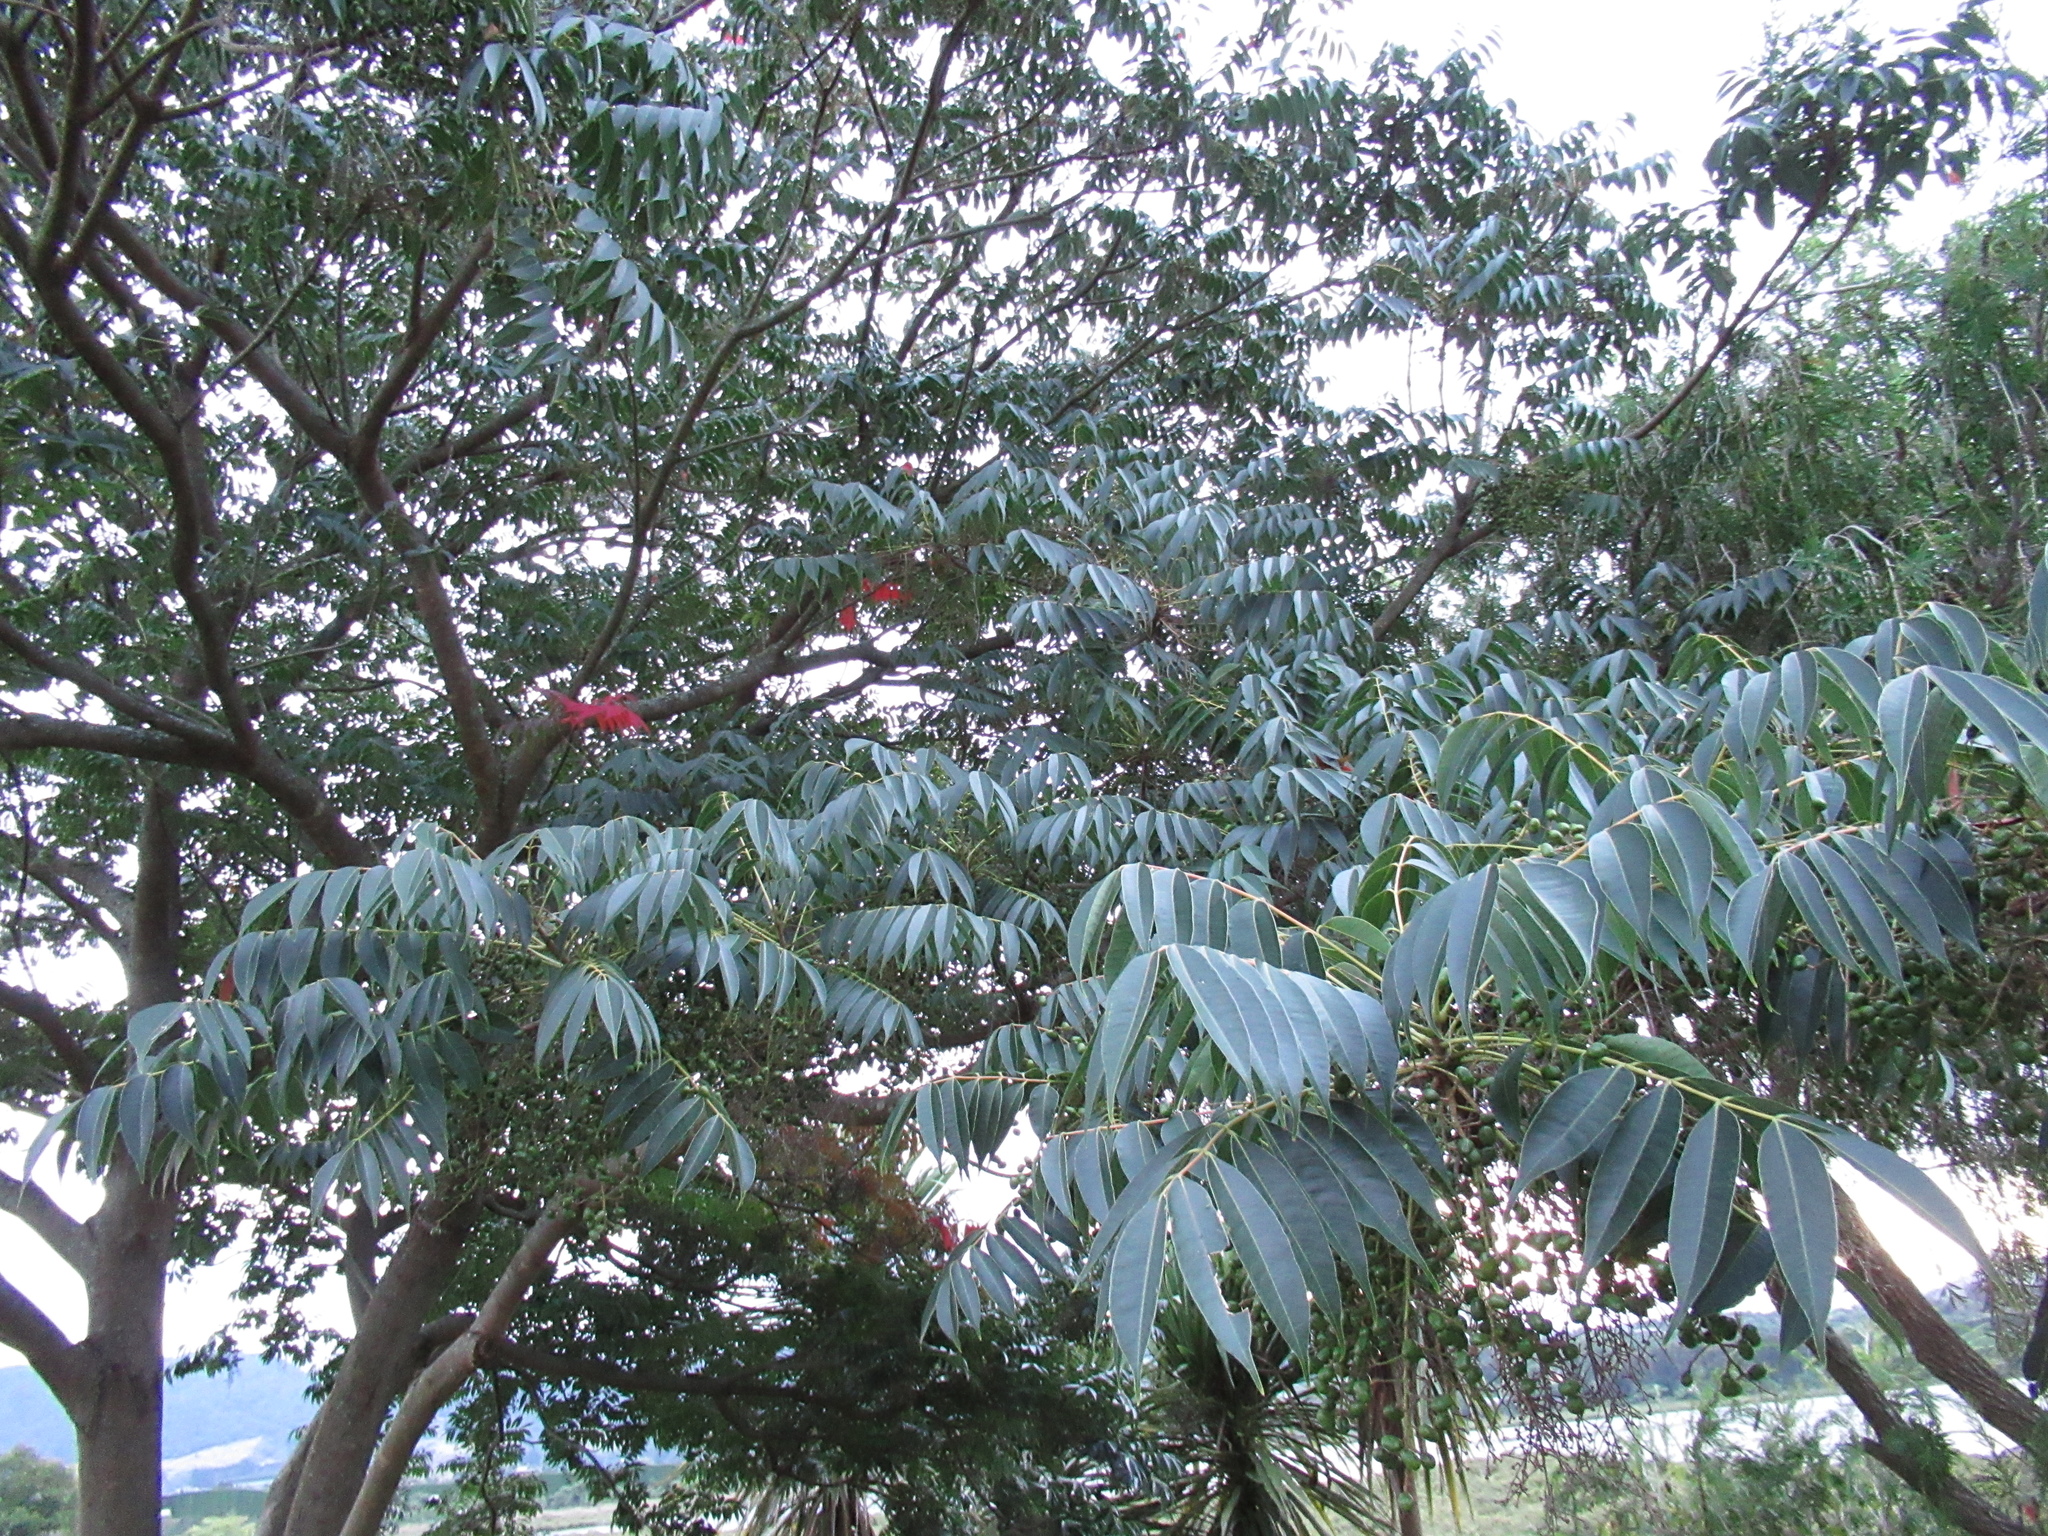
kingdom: Plantae
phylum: Tracheophyta
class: Magnoliopsida
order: Sapindales
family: Anacardiaceae
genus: Toxicodendron
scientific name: Toxicodendron succedaneum
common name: Wax tree
